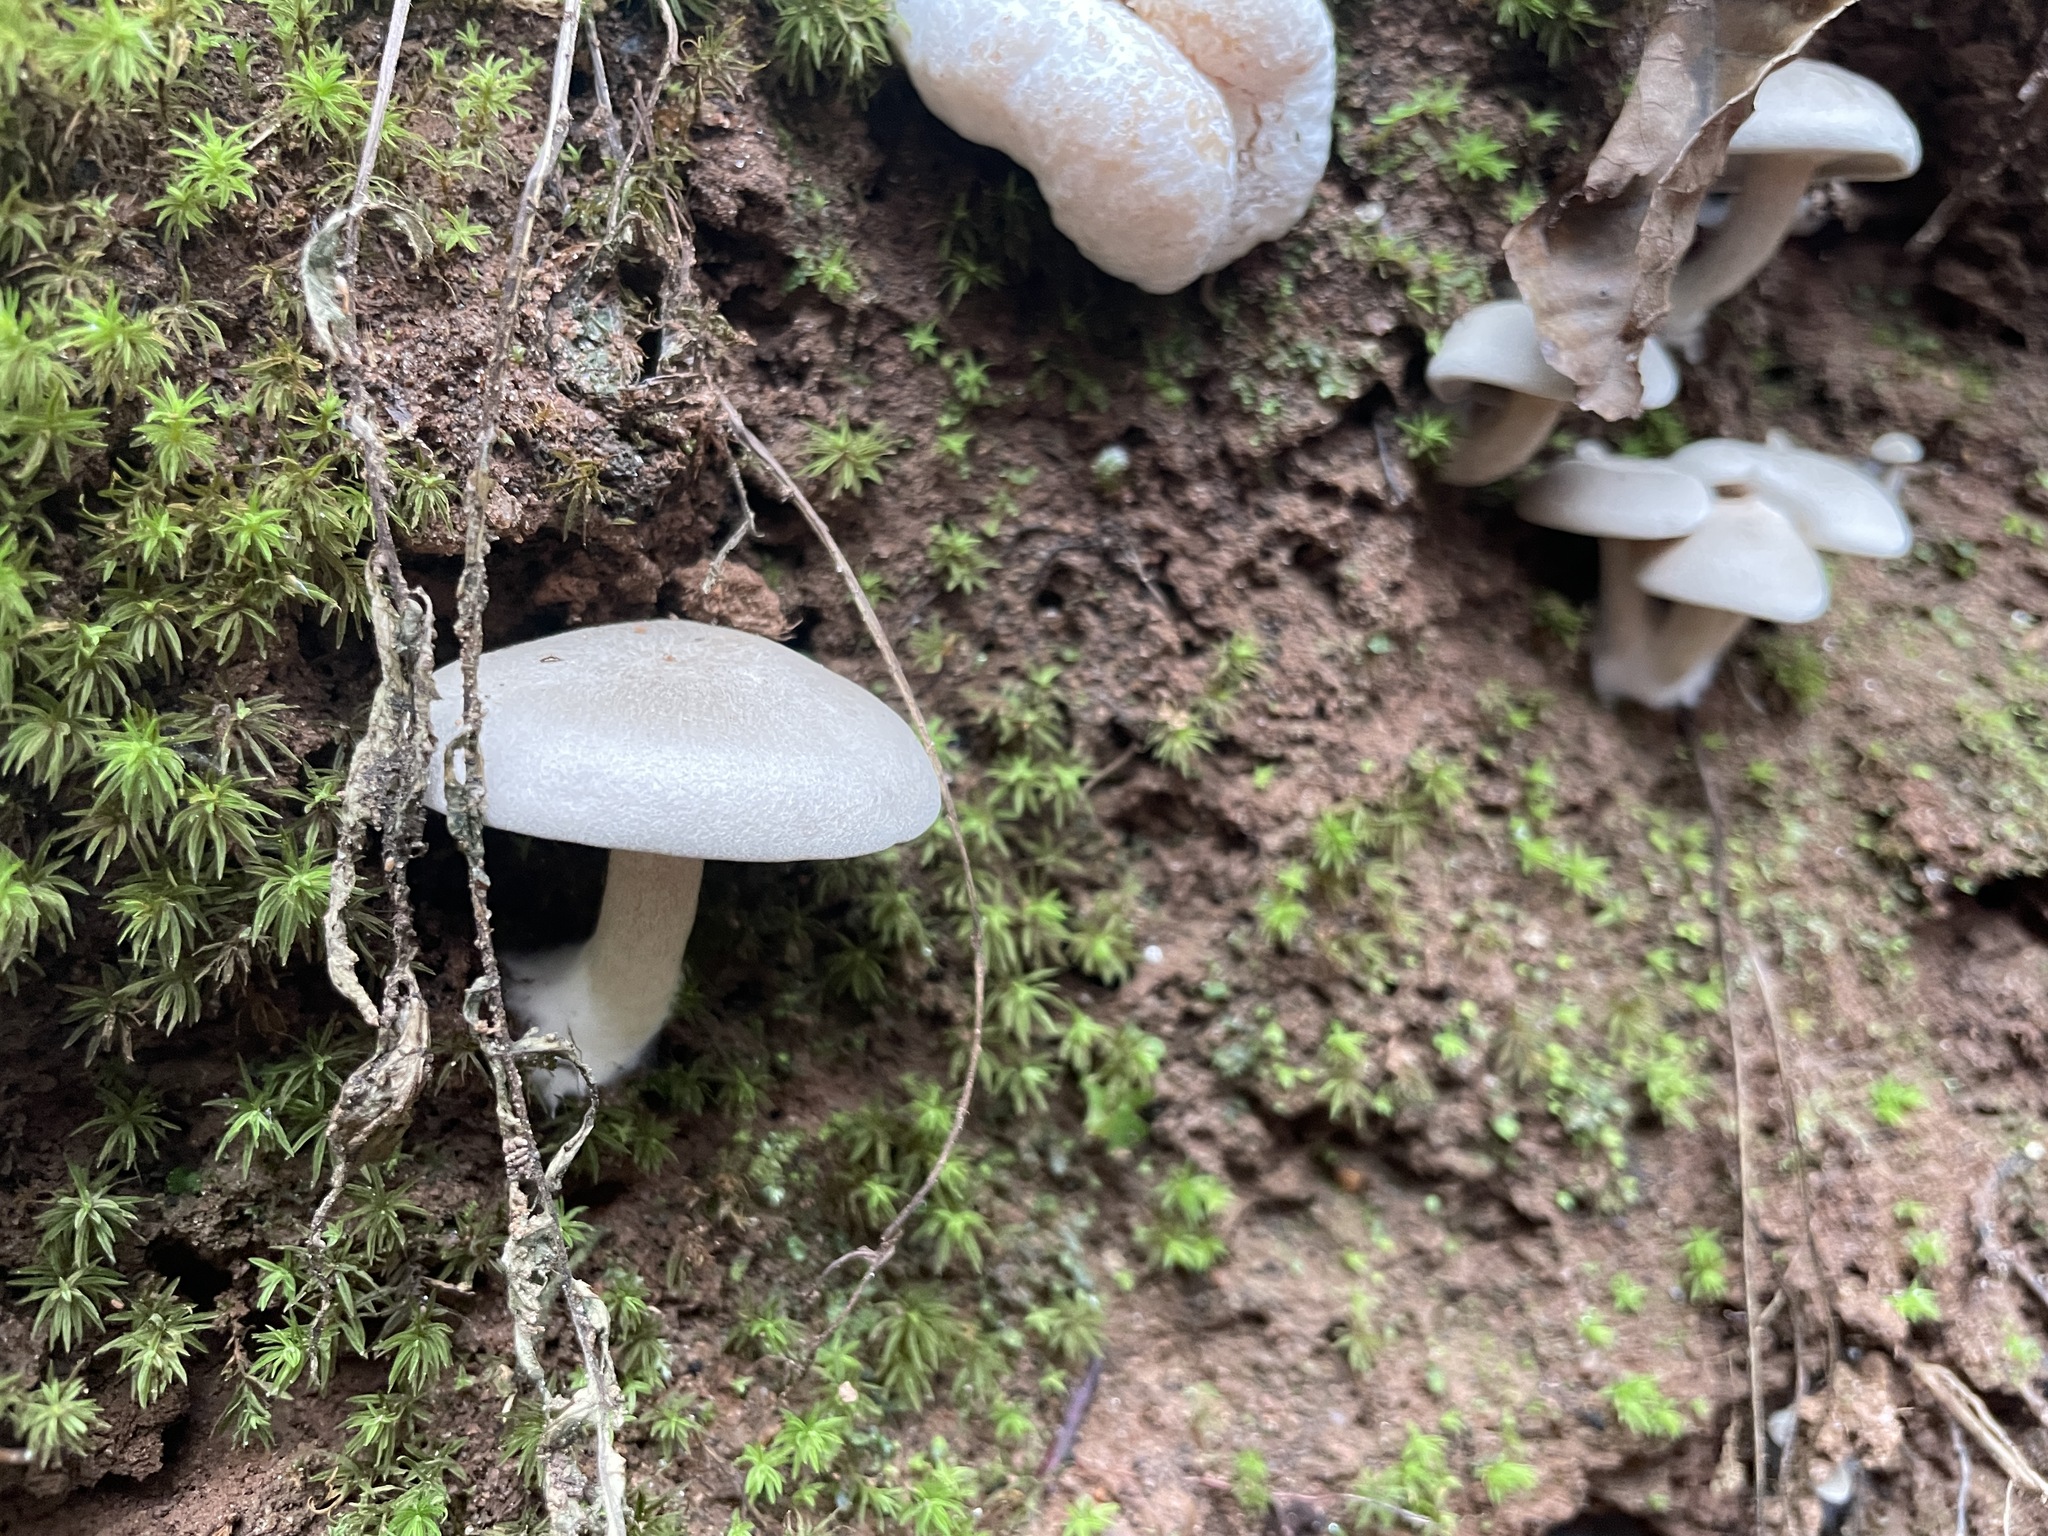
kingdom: Fungi
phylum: Basidiomycota
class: Agaricomycetes
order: Agaricales
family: Entolomataceae
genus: Entoloma
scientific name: Entoloma abortivum
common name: Aborted entoloma
